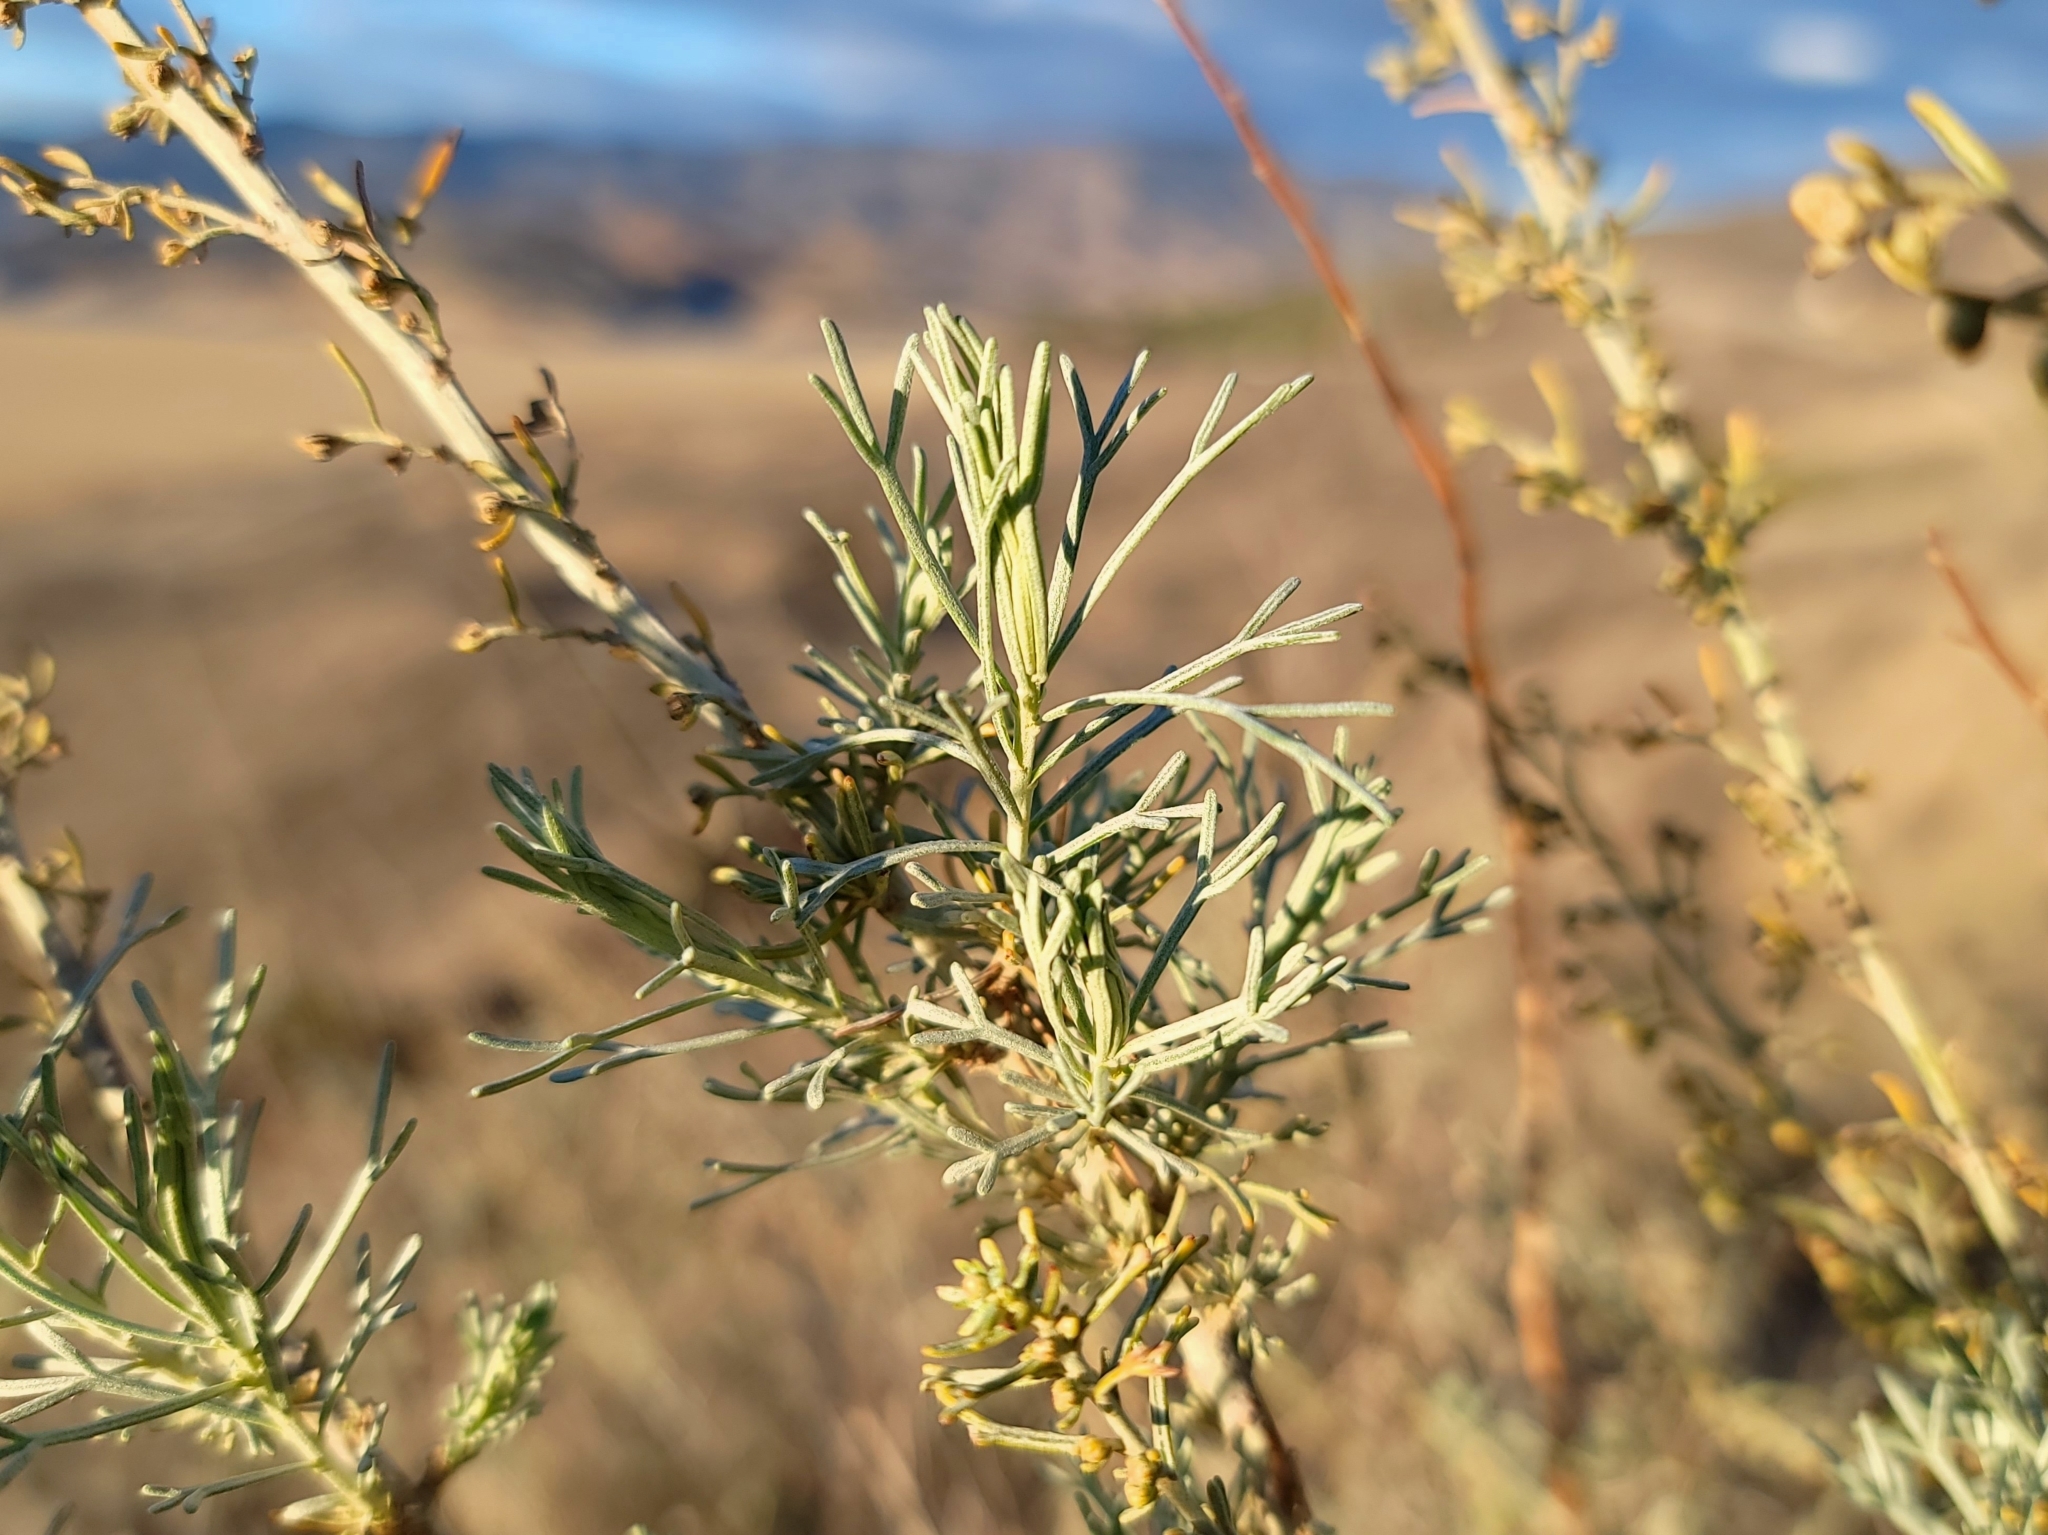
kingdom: Plantae
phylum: Tracheophyta
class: Magnoliopsida
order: Asterales
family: Asteraceae
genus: Artemisia
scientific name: Artemisia californica
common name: California sagebrush
